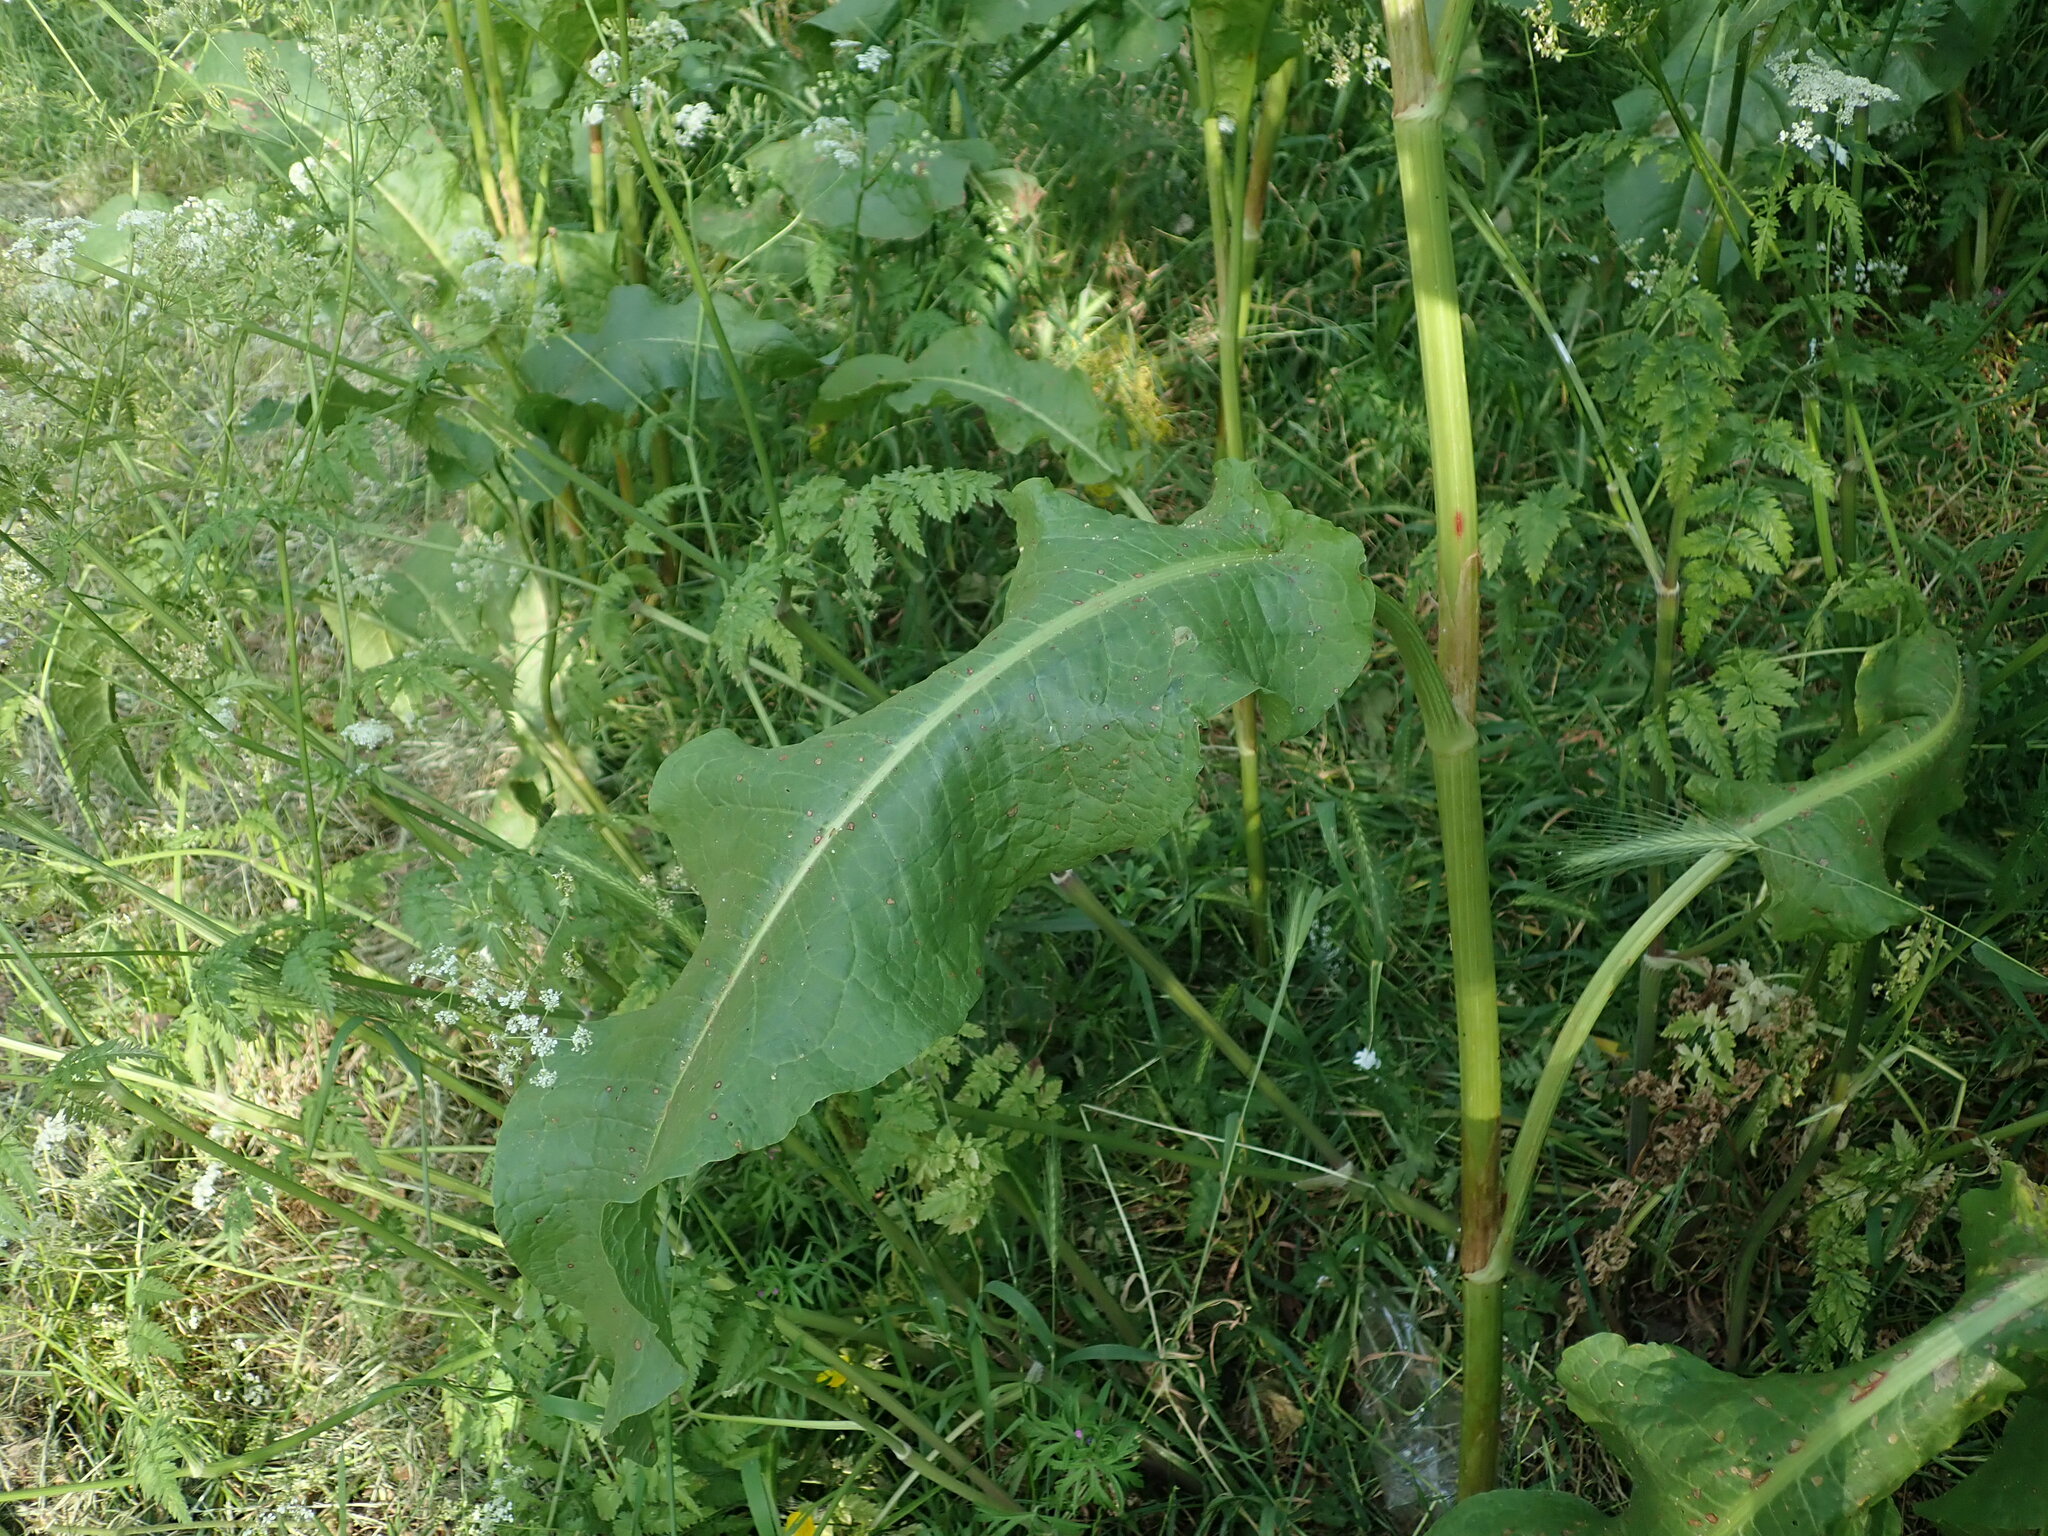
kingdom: Plantae
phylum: Tracheophyta
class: Magnoliopsida
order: Caryophyllales
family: Polygonaceae
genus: Rumex
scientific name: Rumex cristatus
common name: Greek dock
